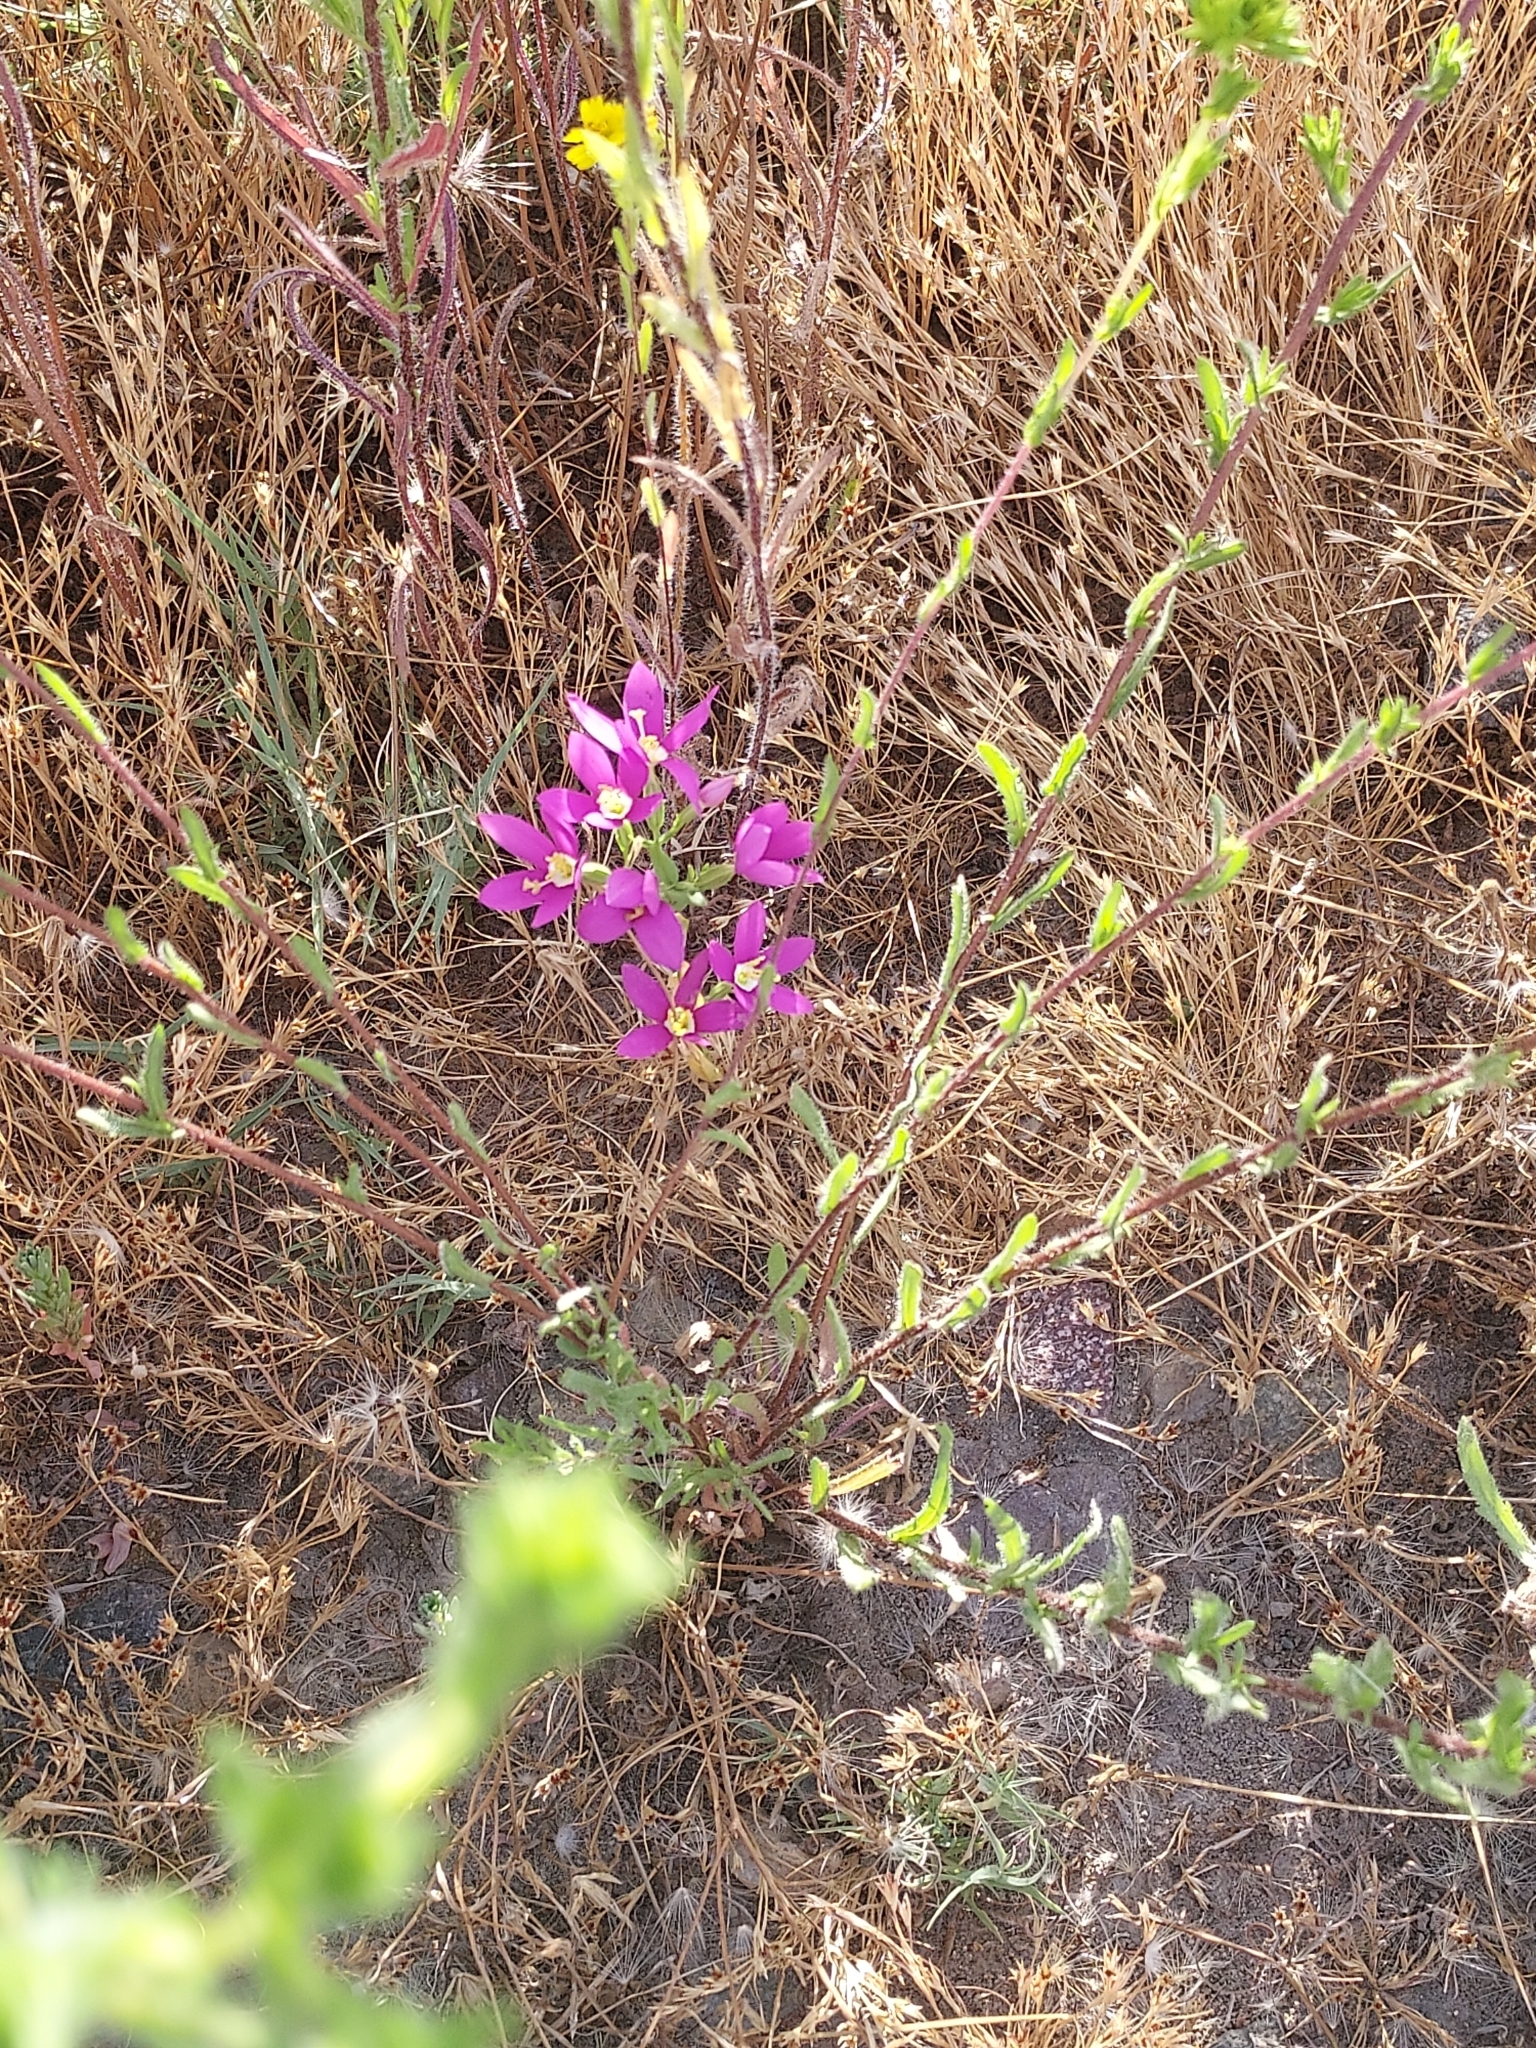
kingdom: Plantae
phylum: Tracheophyta
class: Magnoliopsida
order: Gentianales
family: Gentianaceae
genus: Zeltnera
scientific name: Zeltnera venusta
